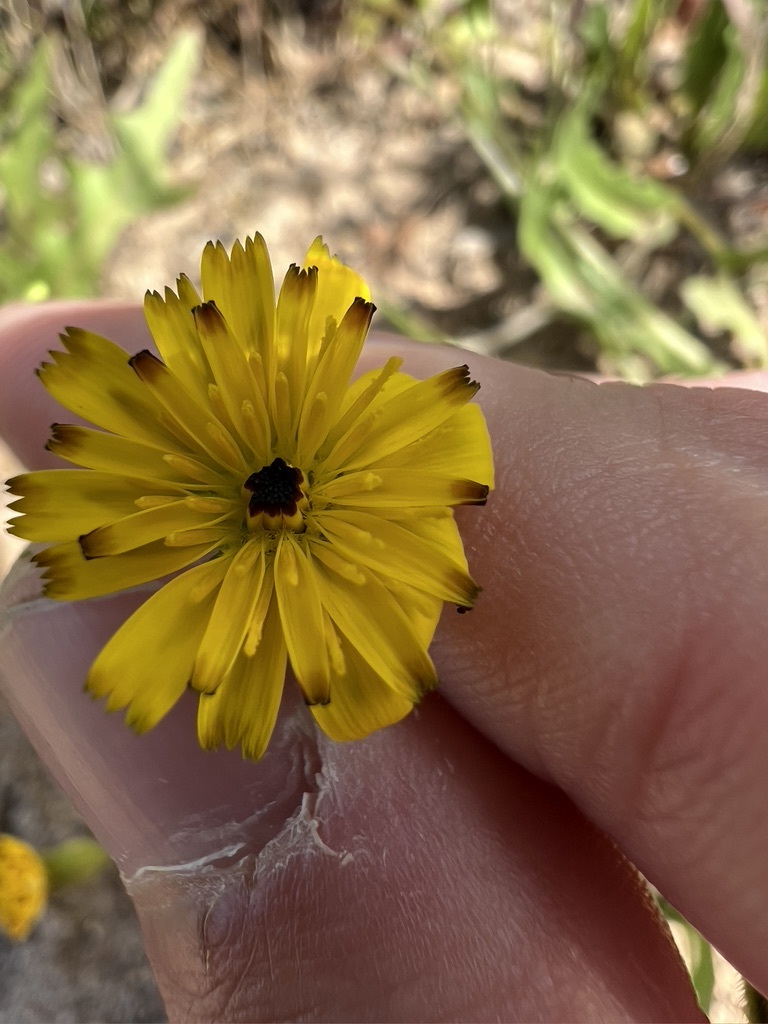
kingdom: Plantae
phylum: Tracheophyta
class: Magnoliopsida
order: Asterales
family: Asteraceae
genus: Hedypnois
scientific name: Hedypnois rhagadioloides
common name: Cretan weed
